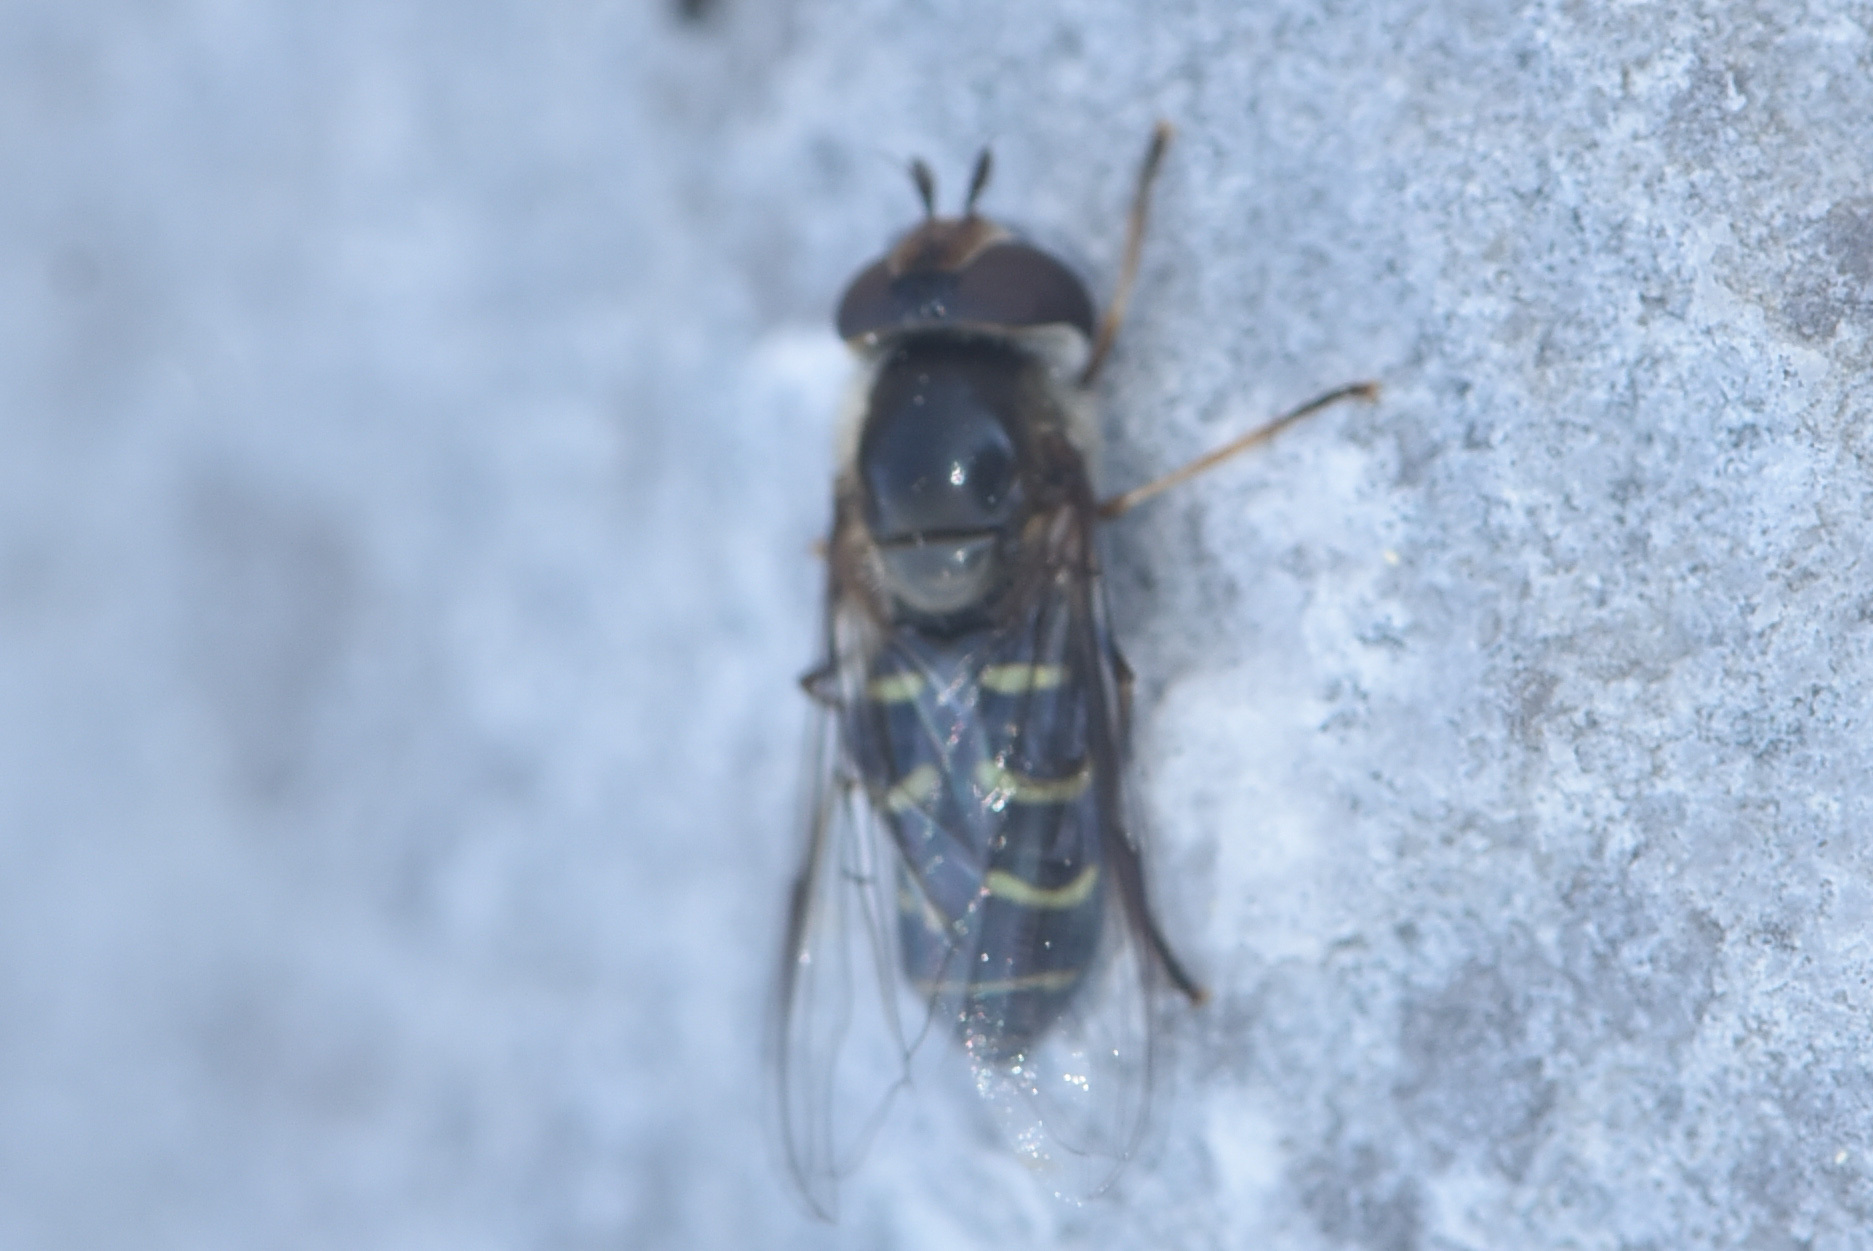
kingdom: Animalia
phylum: Arthropoda
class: Insecta
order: Diptera
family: Syrphidae
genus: Lapposyrphus
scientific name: Lapposyrphus lapponicus
